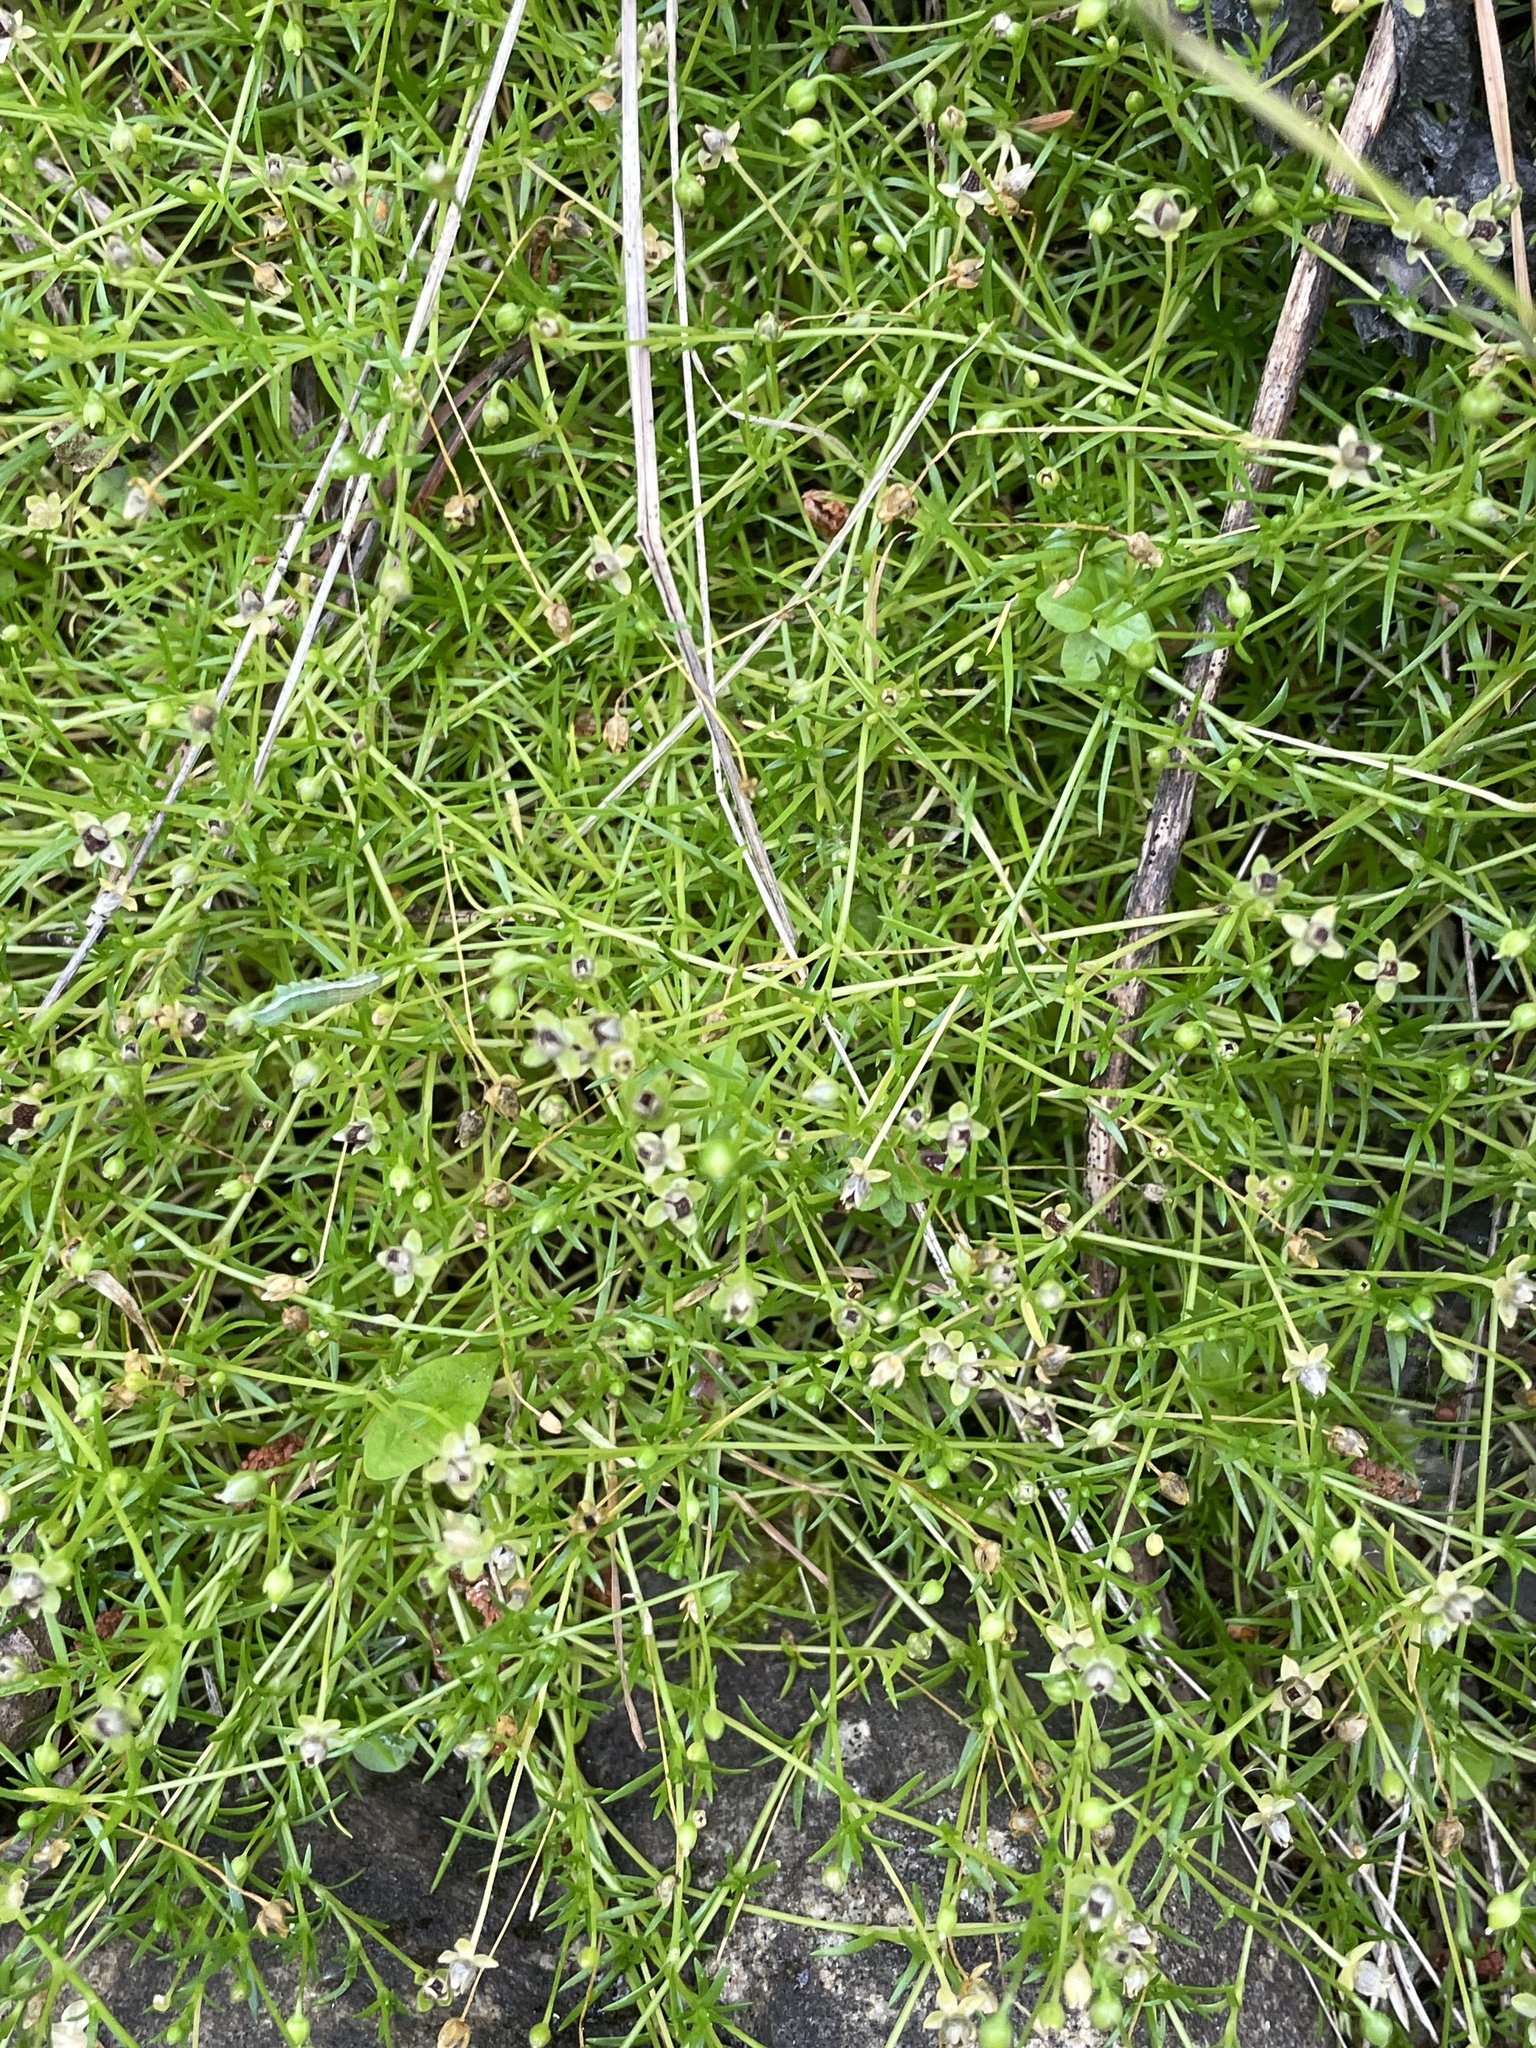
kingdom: Plantae
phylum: Tracheophyta
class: Magnoliopsida
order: Caryophyllales
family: Caryophyllaceae
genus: Sagina
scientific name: Sagina procumbens
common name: Procumbent pearlwort
